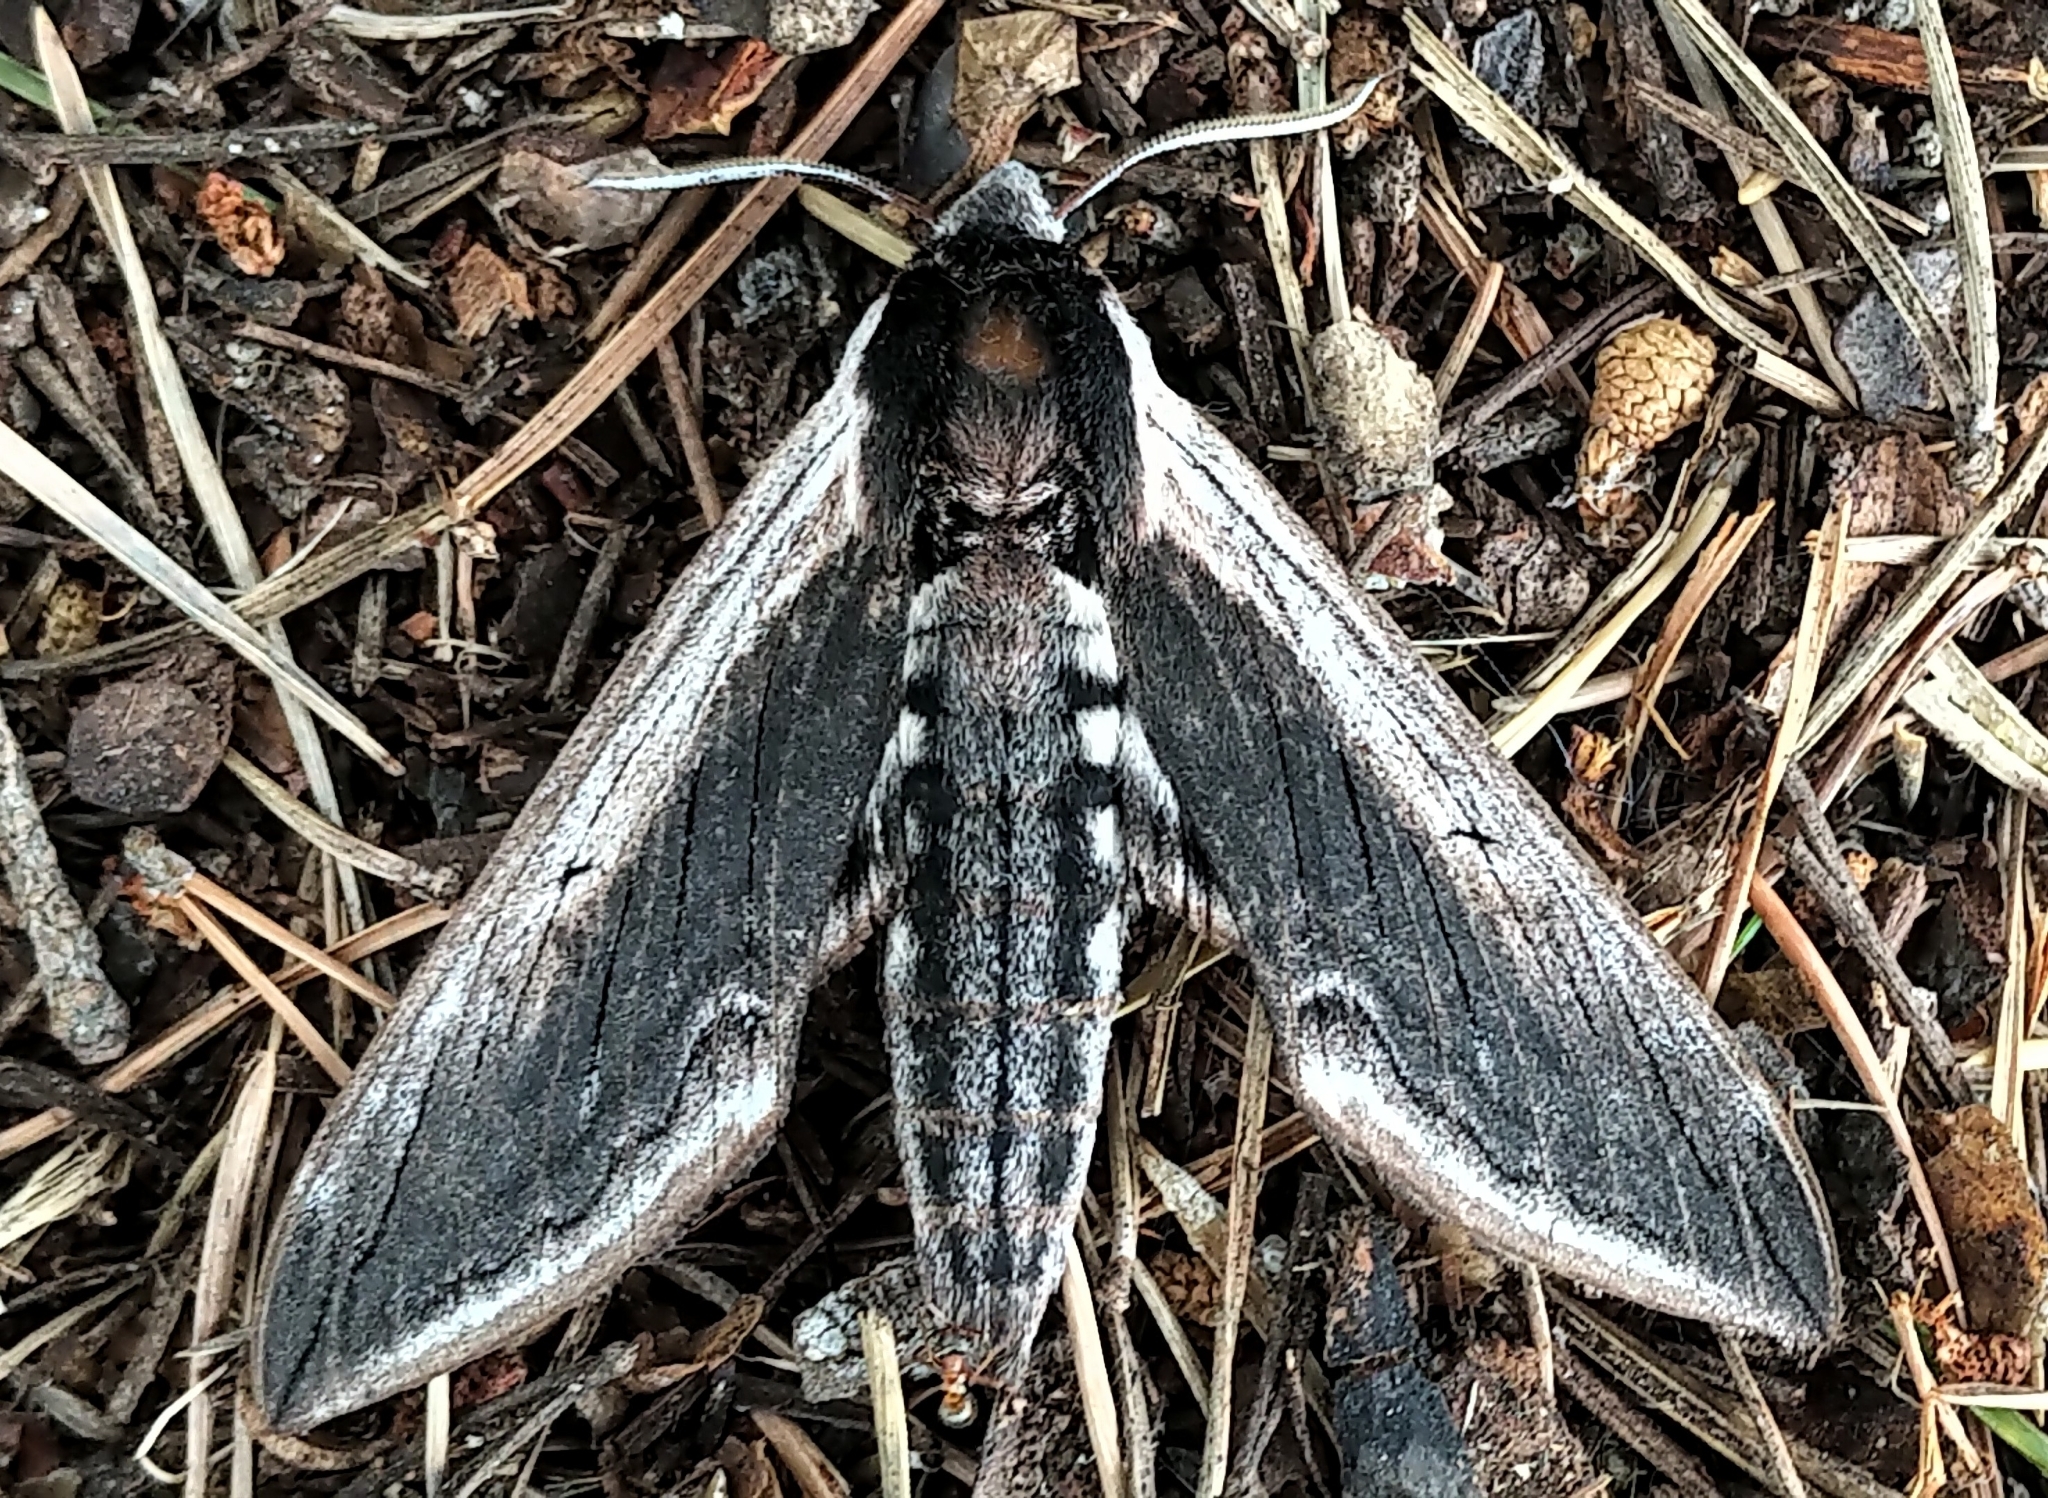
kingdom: Animalia
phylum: Arthropoda
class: Insecta
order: Lepidoptera
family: Sphingidae
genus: Sphinx
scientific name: Sphinx drupiferarum
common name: Wild cherry sphinx
